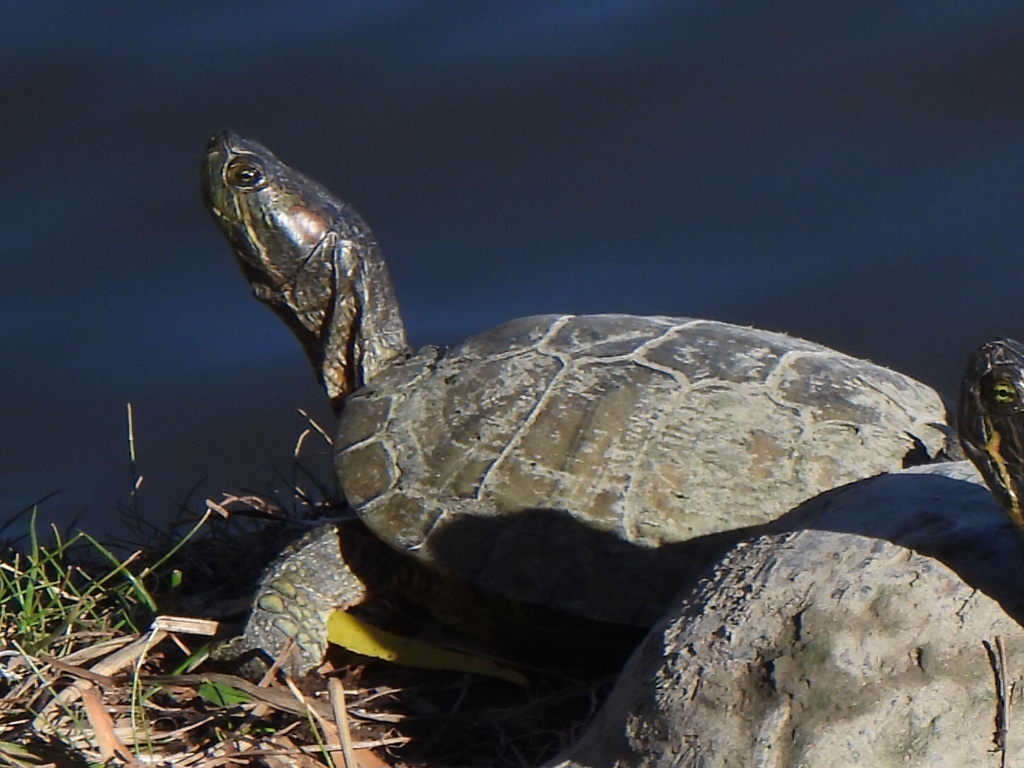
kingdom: Animalia
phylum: Chordata
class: Testudines
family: Emydidae
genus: Trachemys
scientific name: Trachemys scripta
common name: Slider
